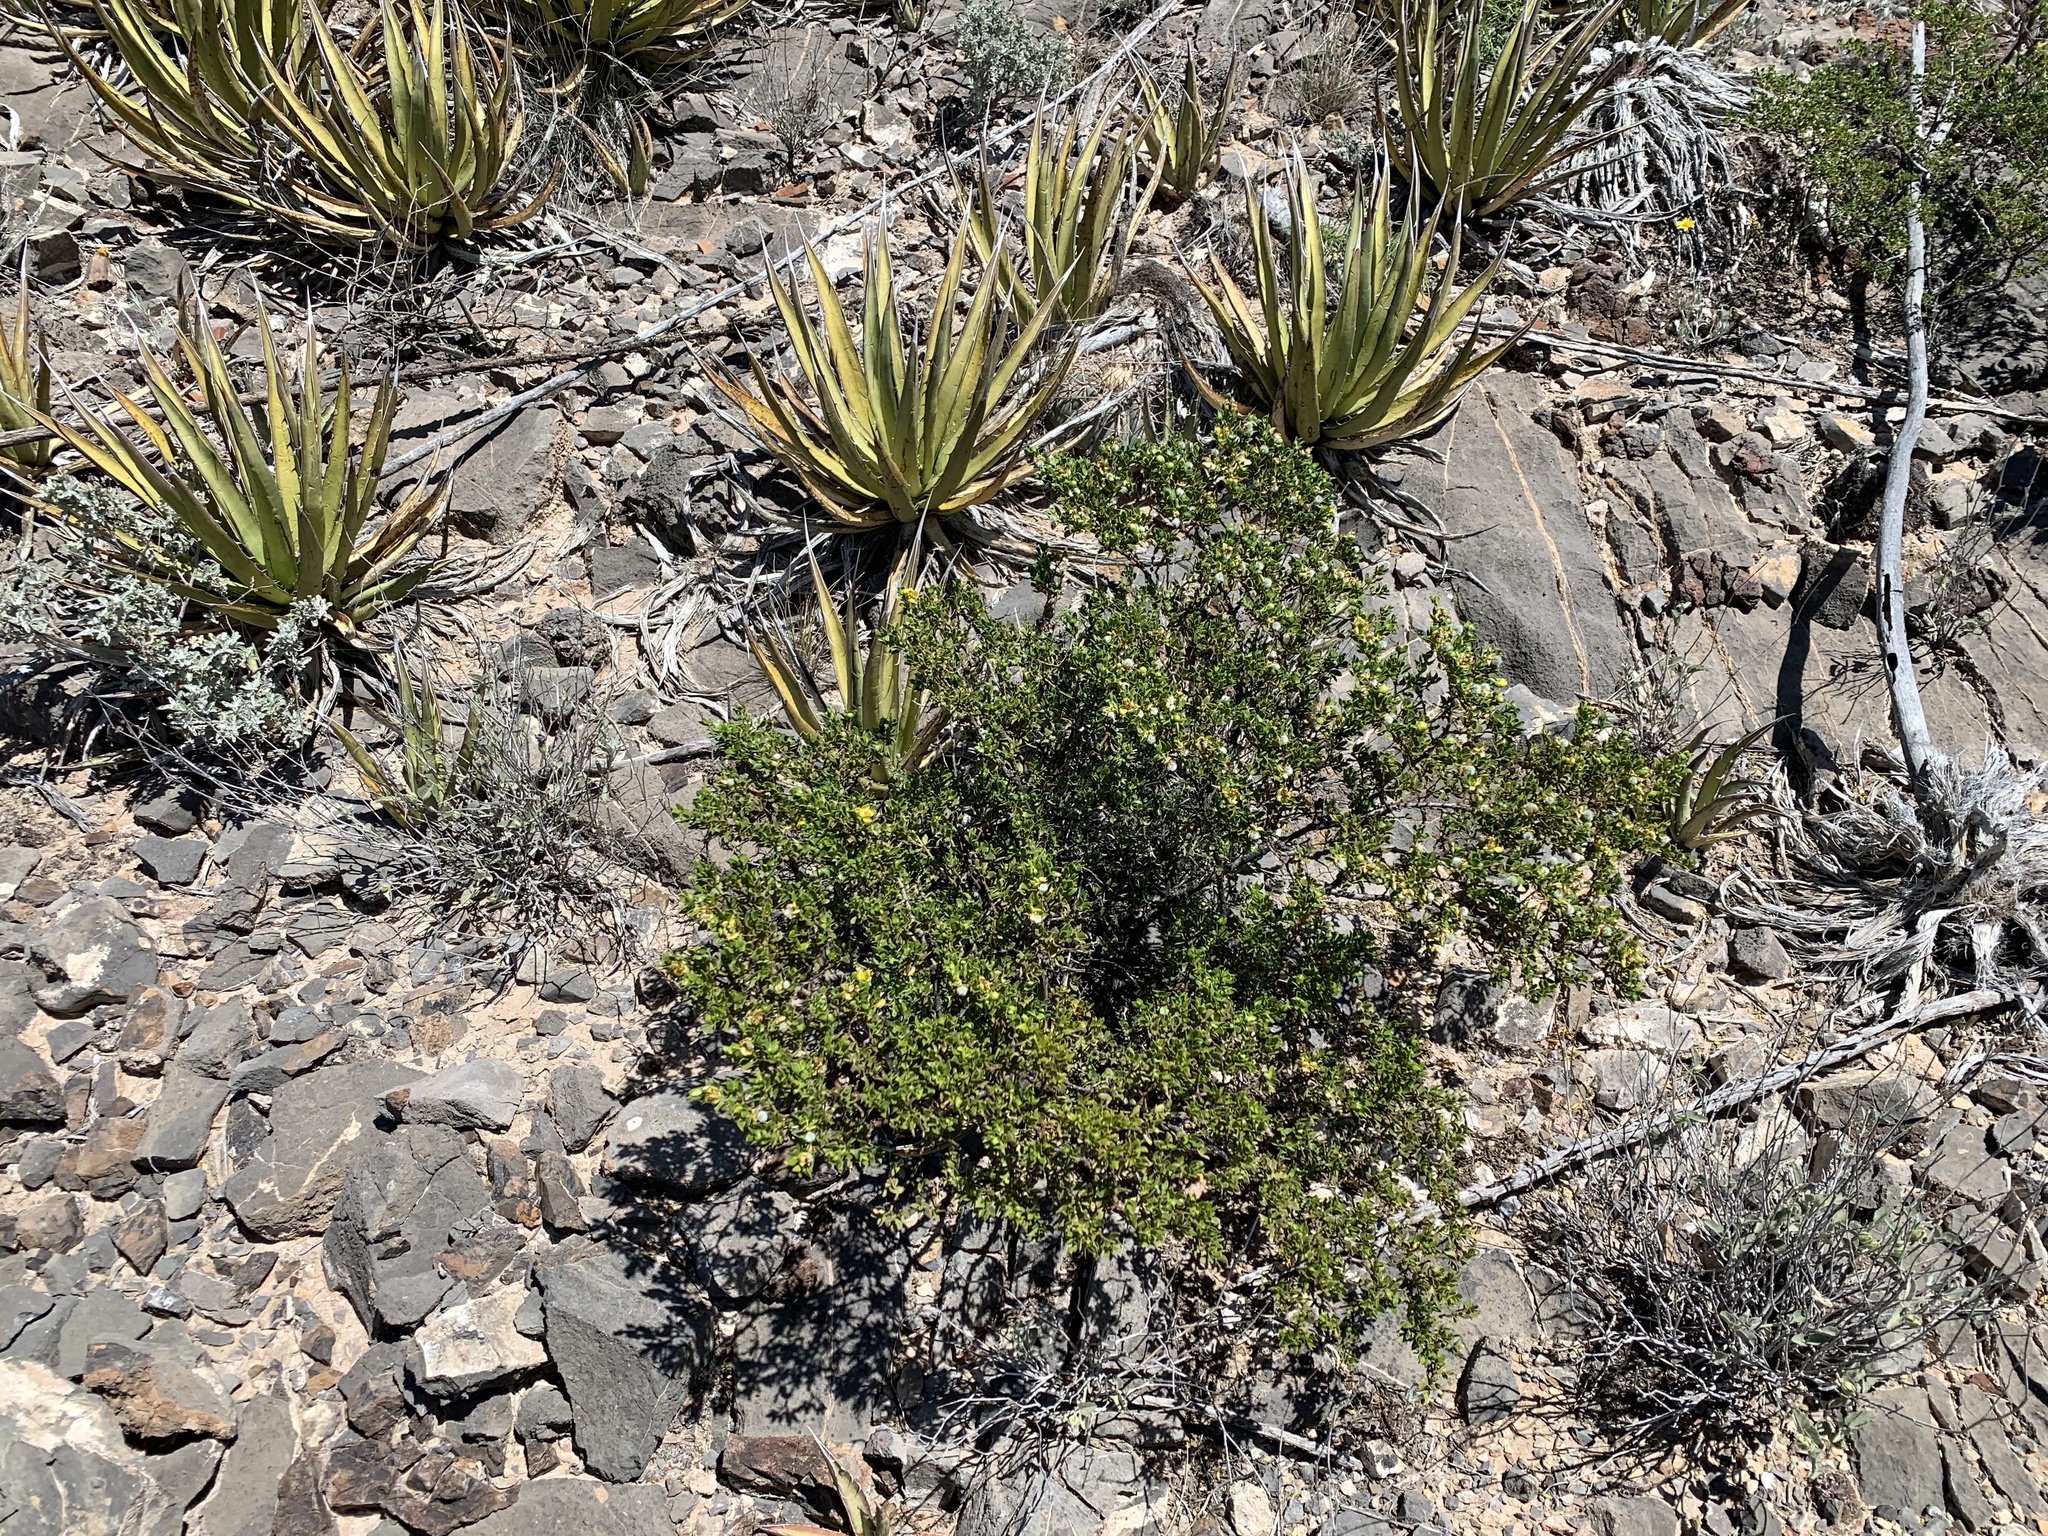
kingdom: Plantae
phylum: Tracheophyta
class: Magnoliopsida
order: Zygophyllales
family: Zygophyllaceae
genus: Larrea
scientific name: Larrea tridentata
